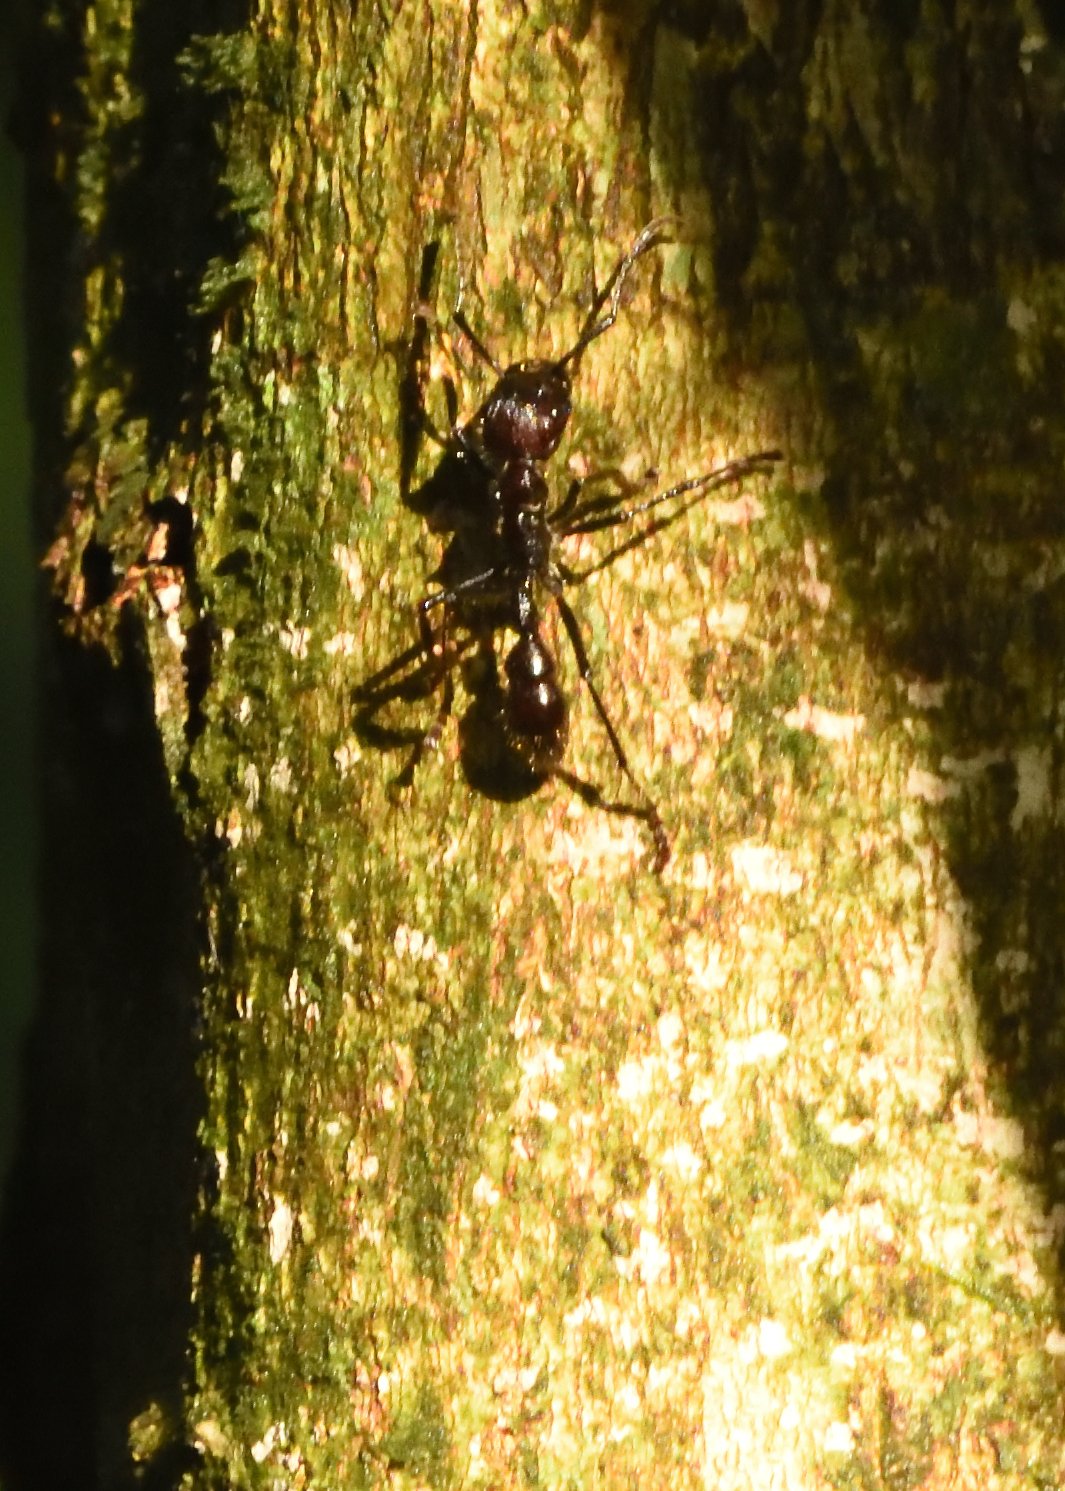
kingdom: Animalia
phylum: Arthropoda
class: Insecta
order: Hymenoptera
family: Formicidae
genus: Paraponera
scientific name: Paraponera clavata
